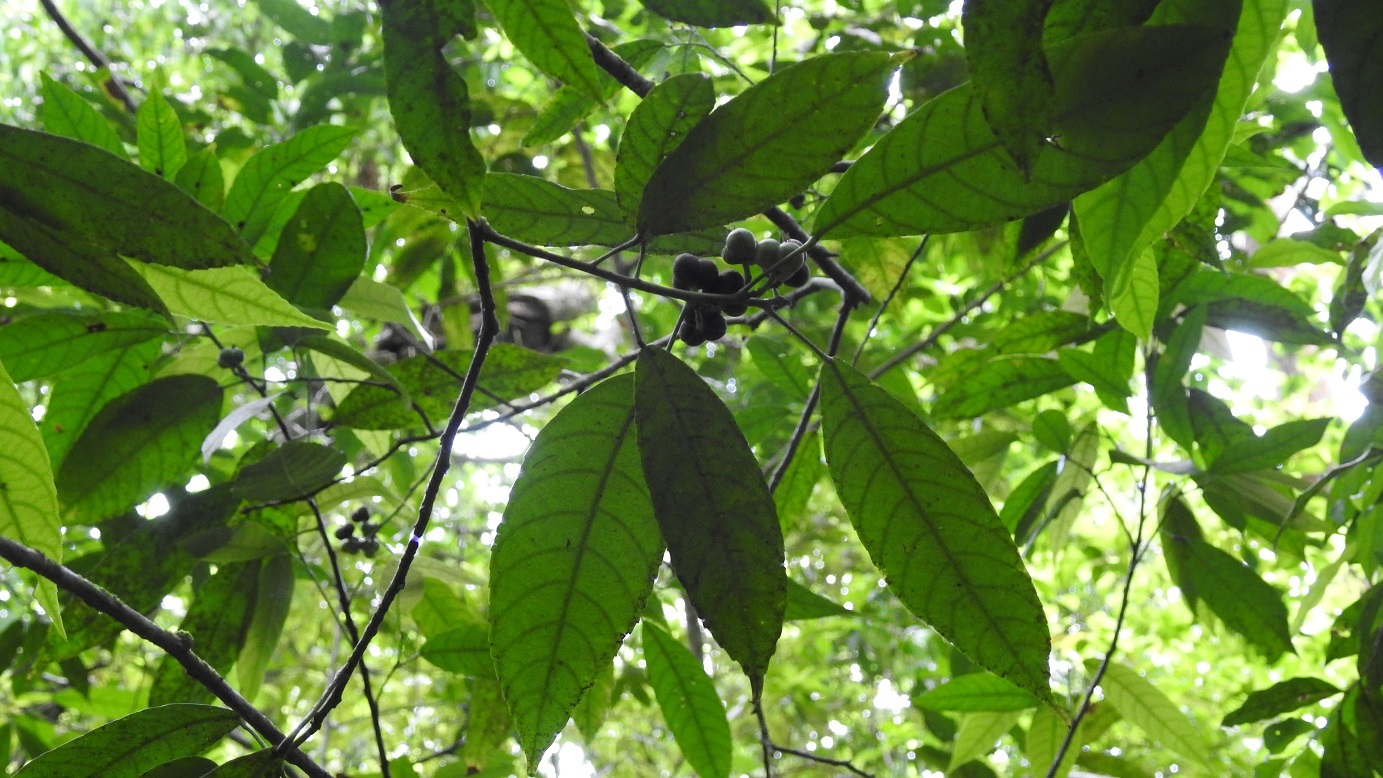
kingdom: Plantae
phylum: Tracheophyta
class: Magnoliopsida
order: Malpighiales
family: Euphorbiaceae
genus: Cleidion
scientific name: Cleidion castaneifolium
